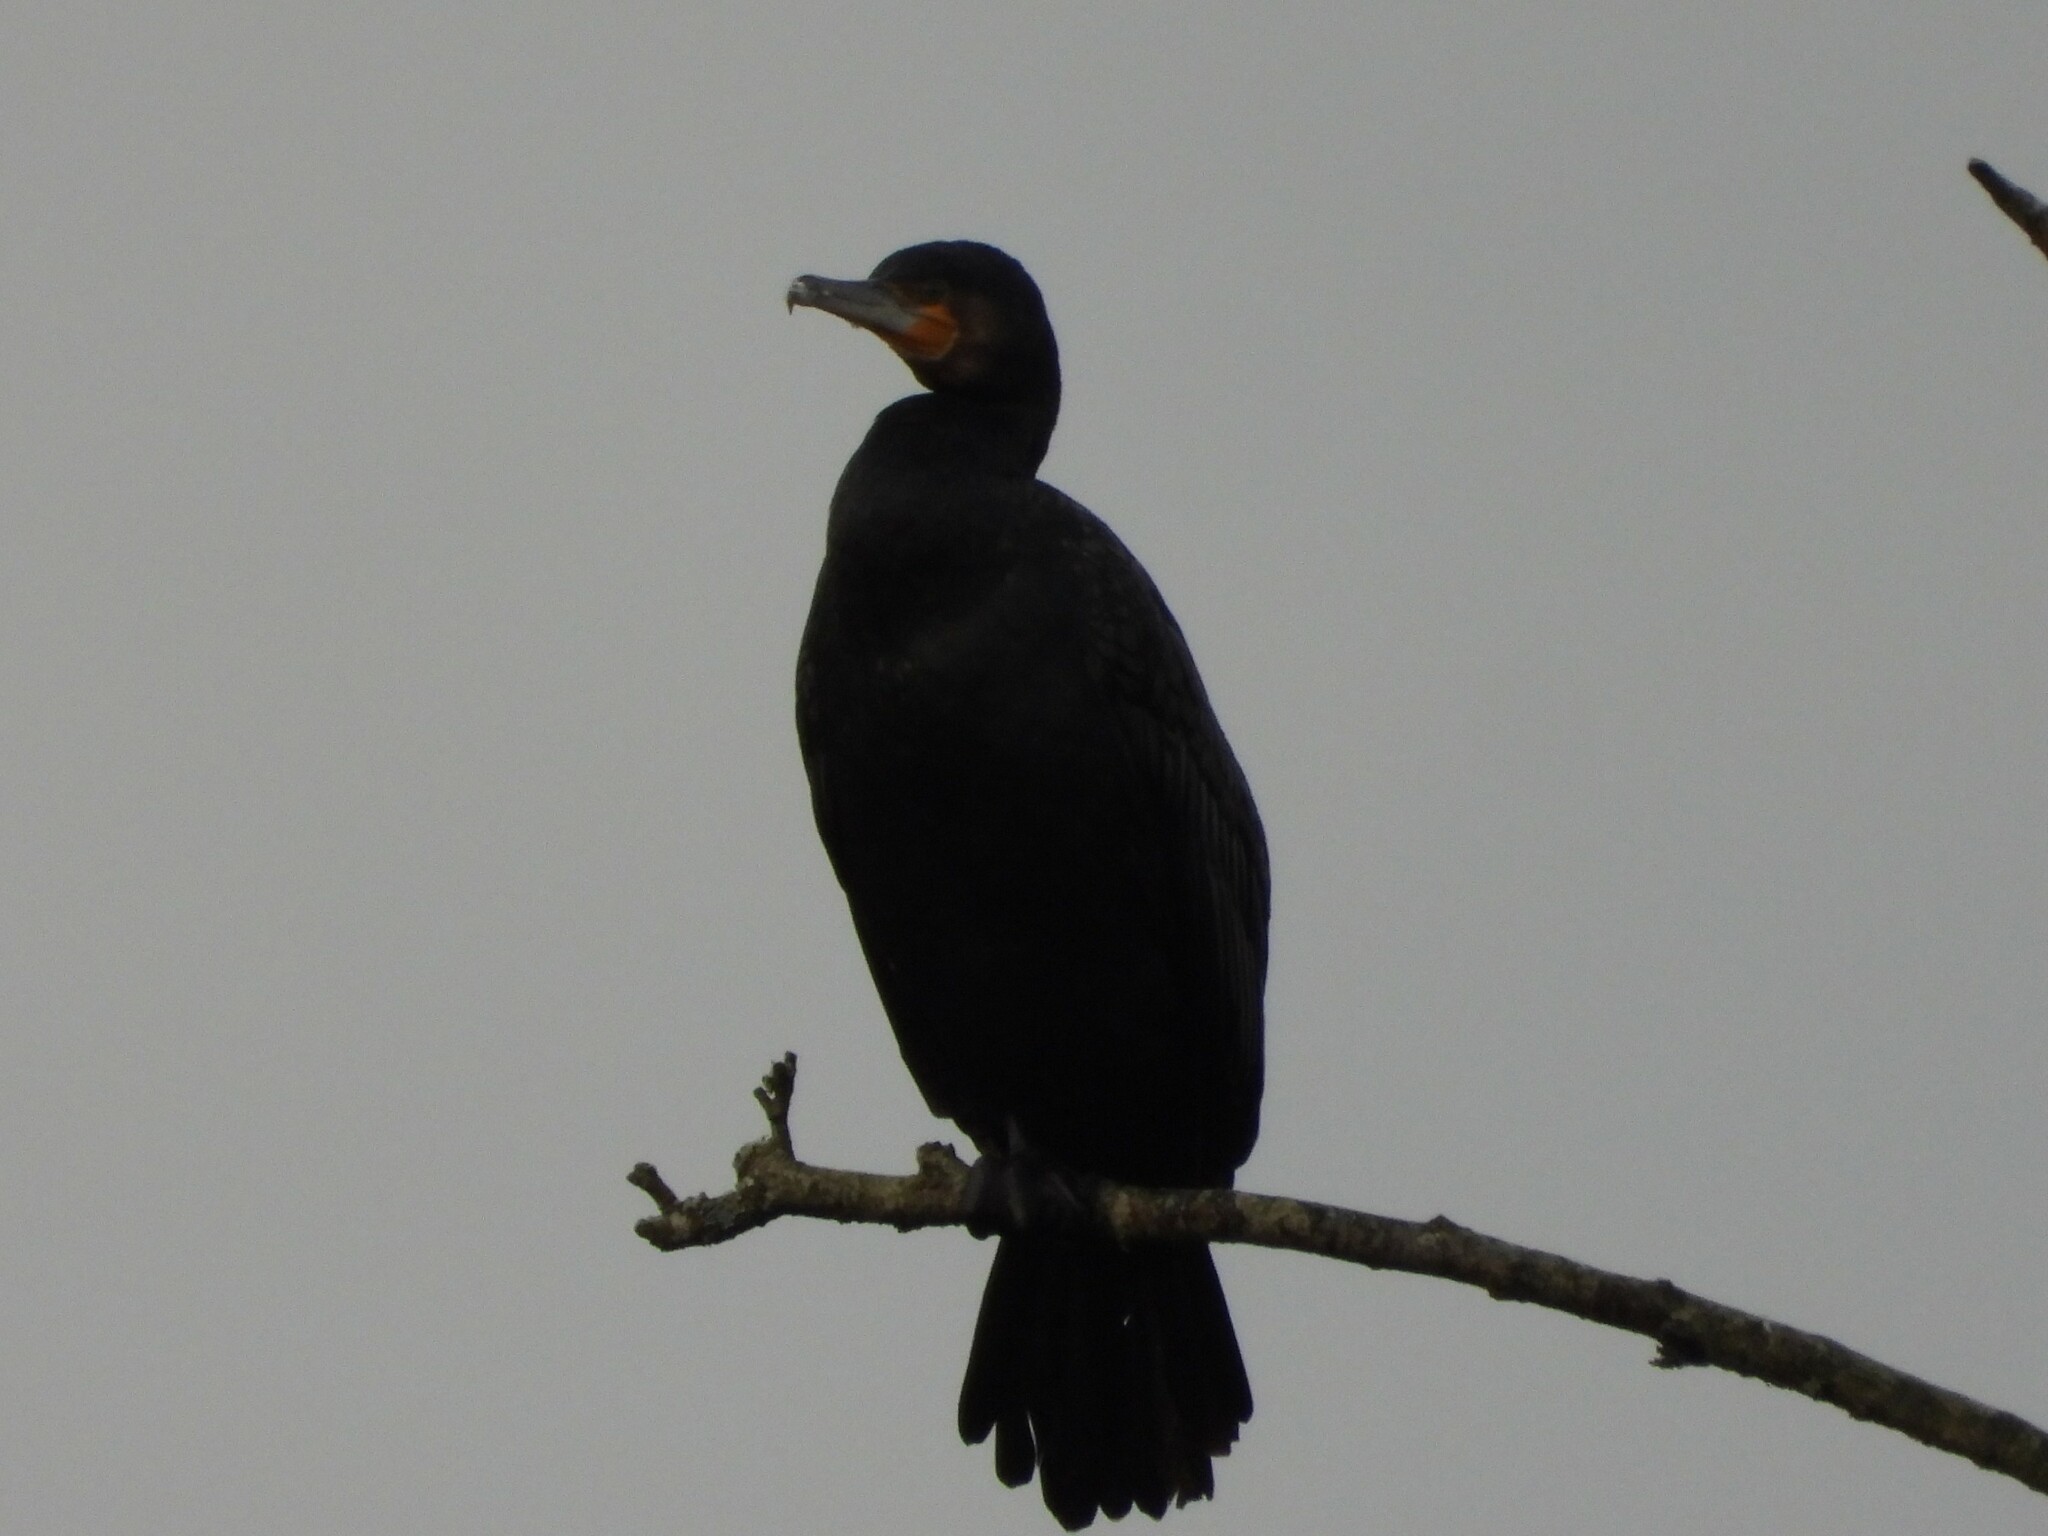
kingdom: Animalia
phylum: Chordata
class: Aves
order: Suliformes
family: Phalacrocoracidae
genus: Phalacrocorax
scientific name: Phalacrocorax carbo
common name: Great cormorant
